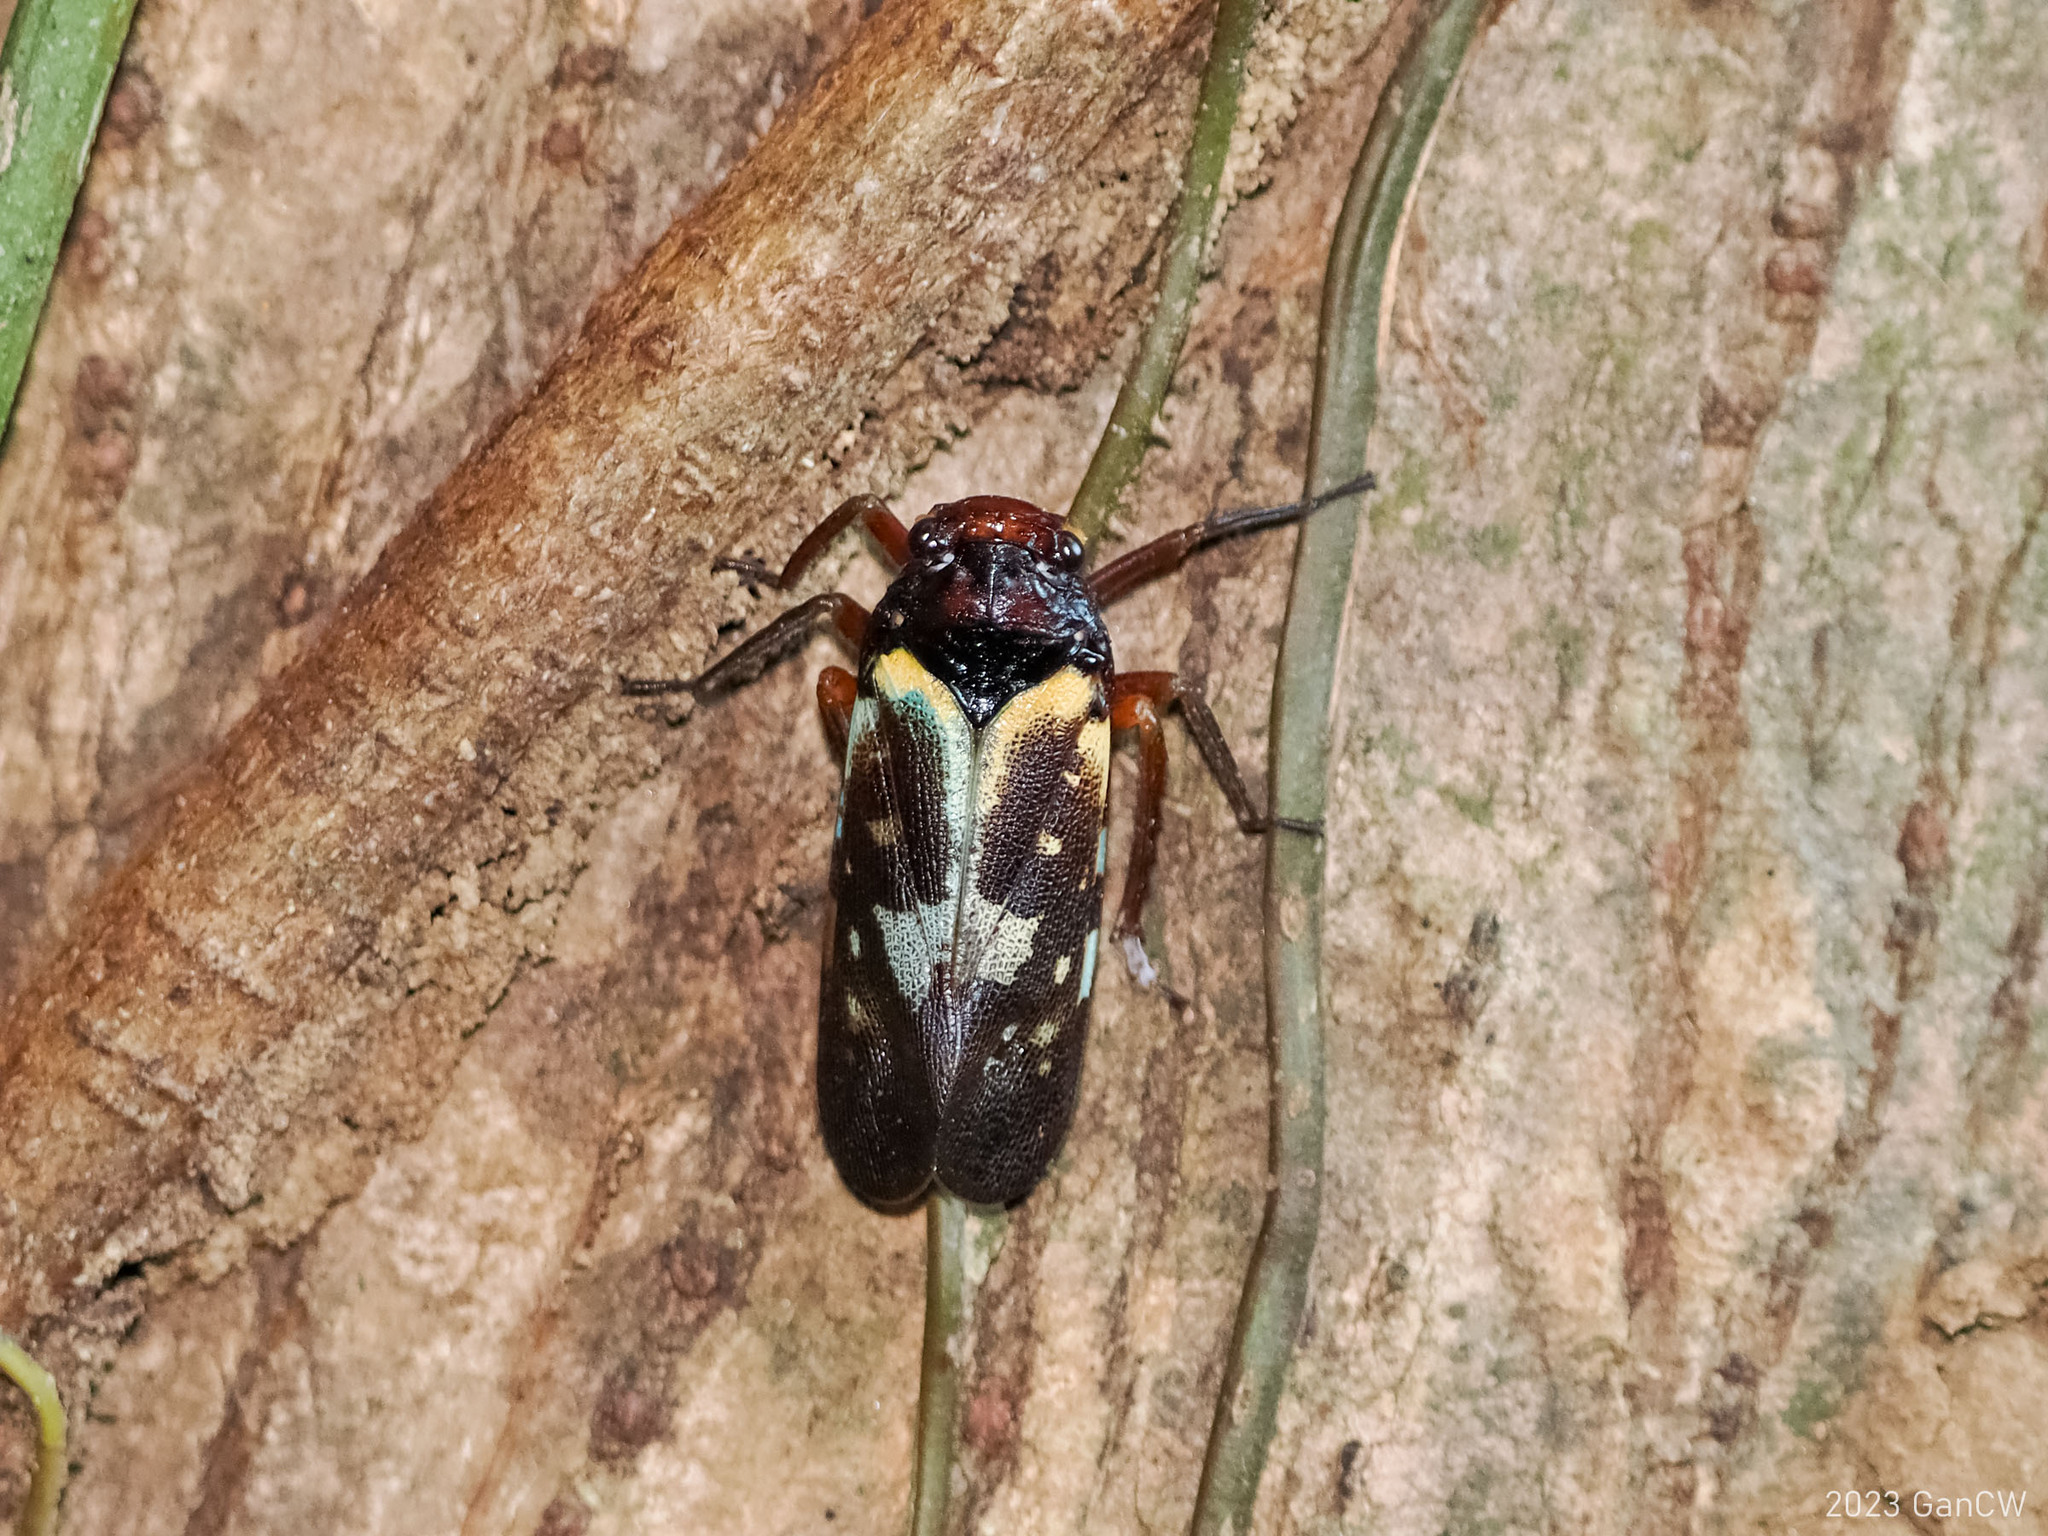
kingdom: Animalia
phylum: Arthropoda
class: Insecta
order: Hemiptera
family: Fulgoridae
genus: Polydictya
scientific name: Polydictya bantimurung
